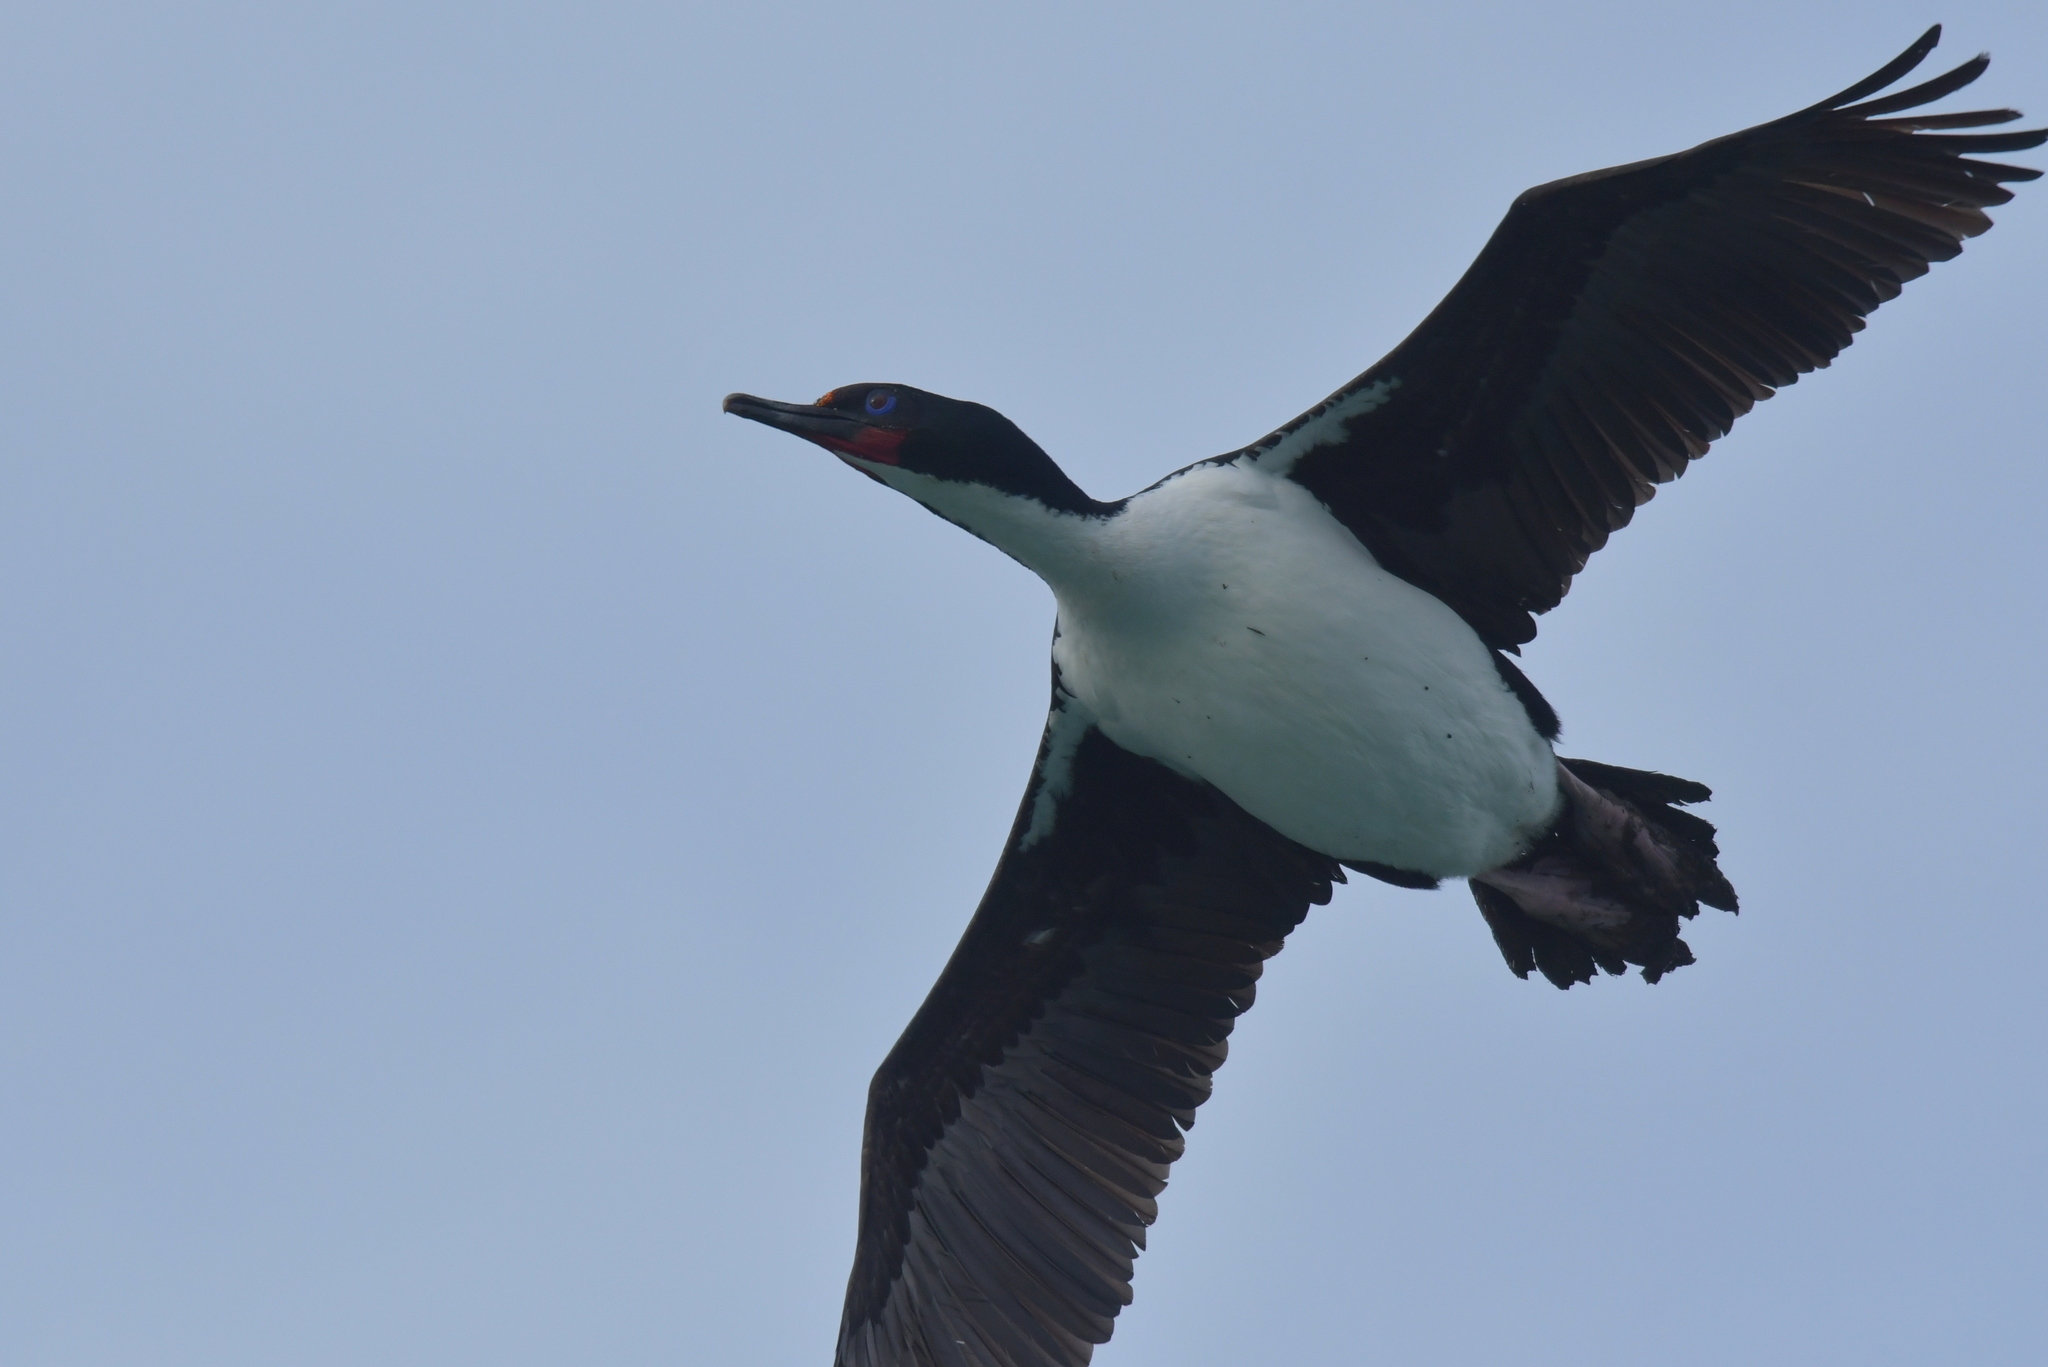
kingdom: Animalia
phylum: Chordata
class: Aves
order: Suliformes
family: Phalacrocoracidae
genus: Leucocarbo
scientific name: Leucocarbo chalconotus
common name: Stewart shag
